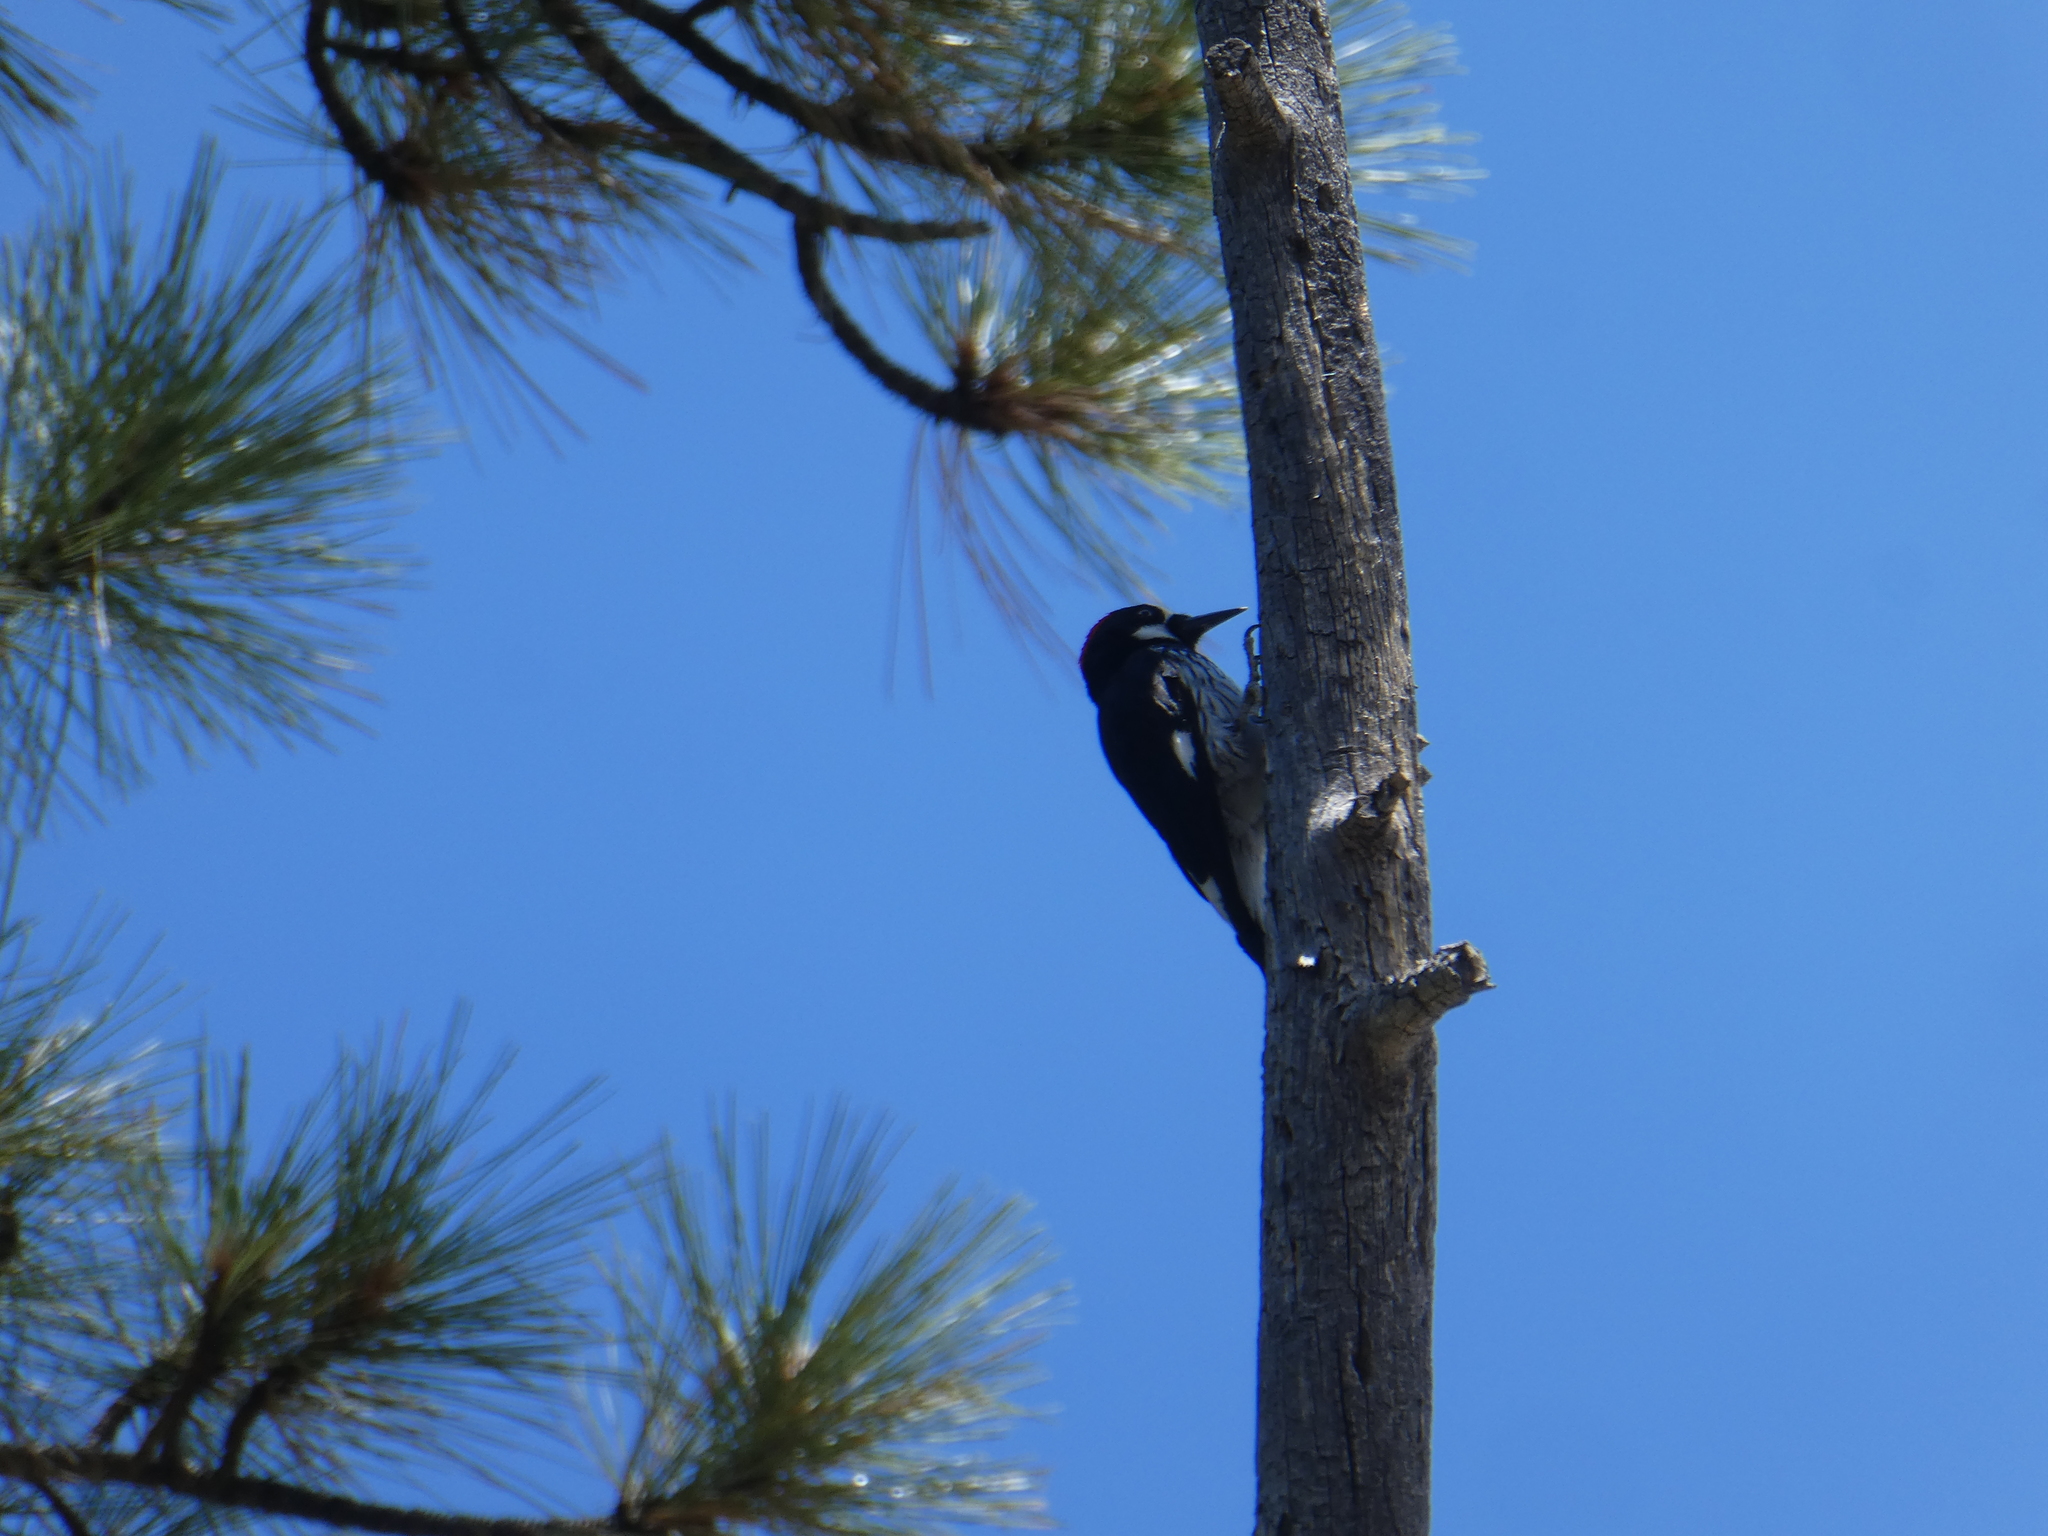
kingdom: Animalia
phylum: Chordata
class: Aves
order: Piciformes
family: Picidae
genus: Melanerpes
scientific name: Melanerpes formicivorus
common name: Acorn woodpecker
